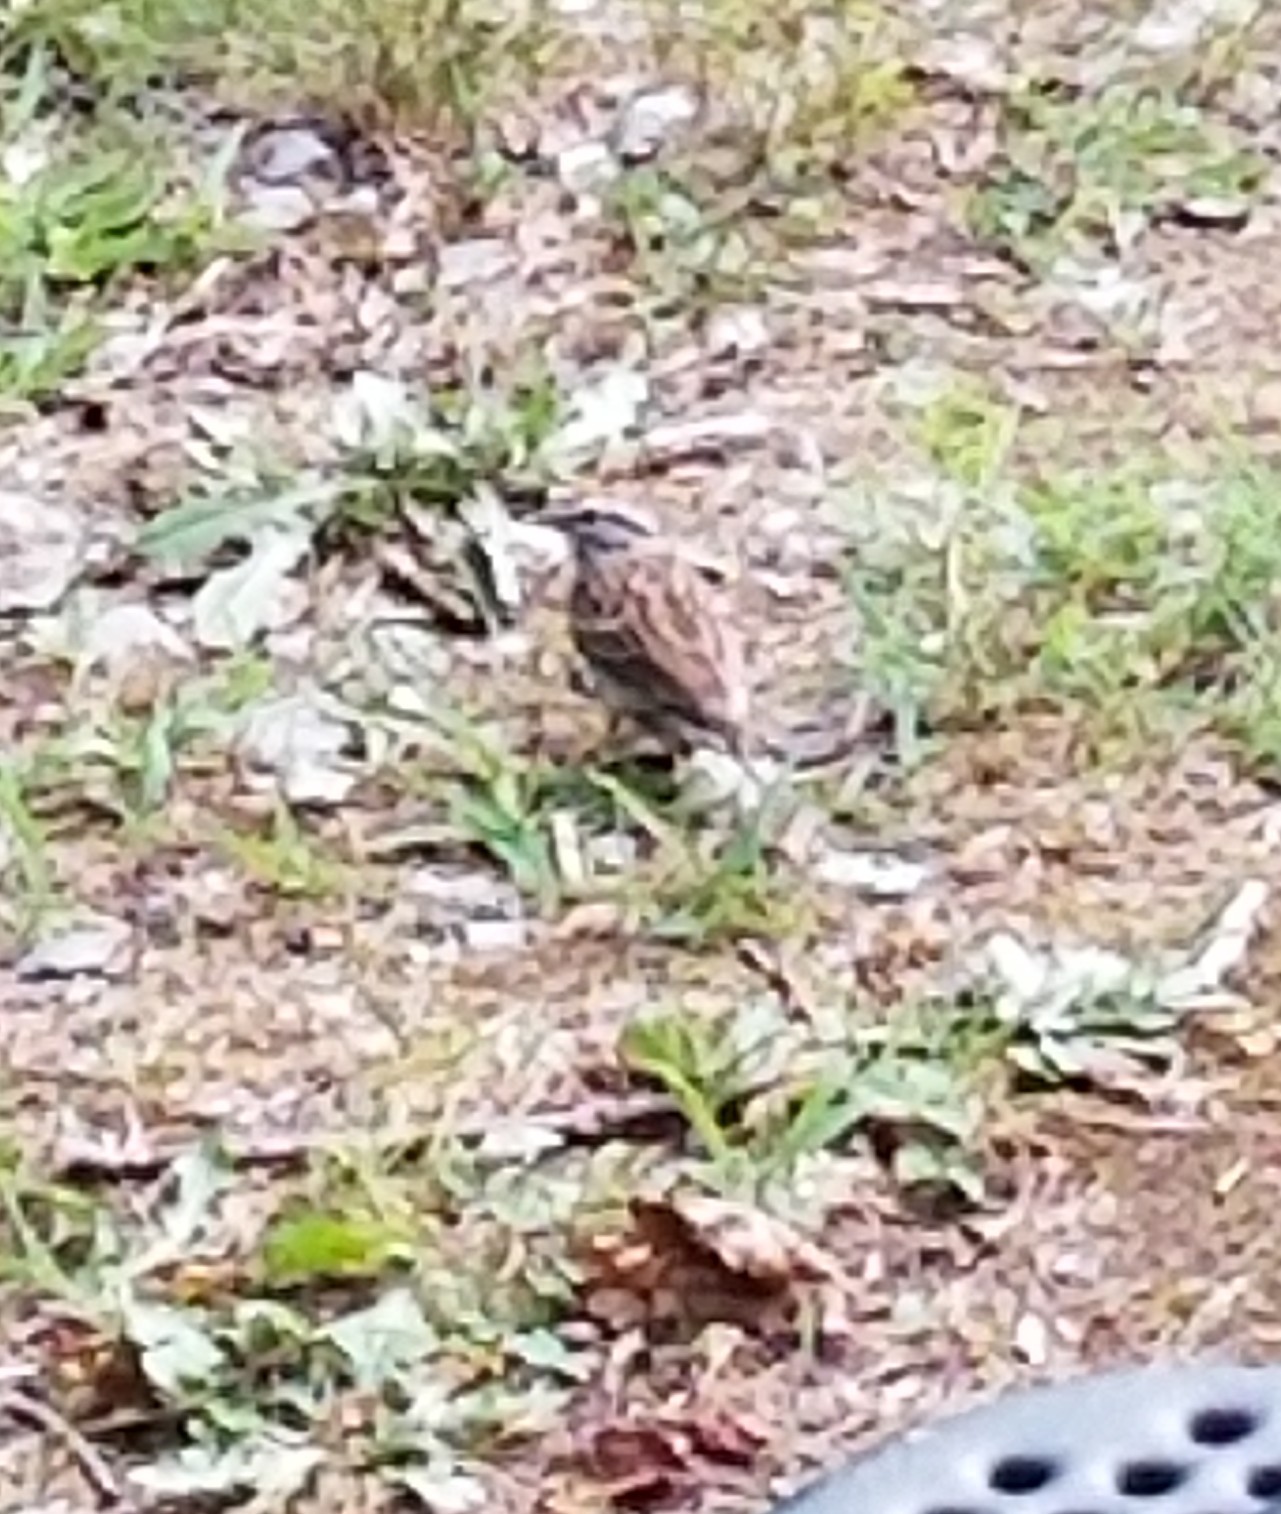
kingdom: Animalia
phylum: Chordata
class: Aves
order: Passeriformes
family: Passerellidae
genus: Spizella
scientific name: Spizella passerina
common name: Chipping sparrow
